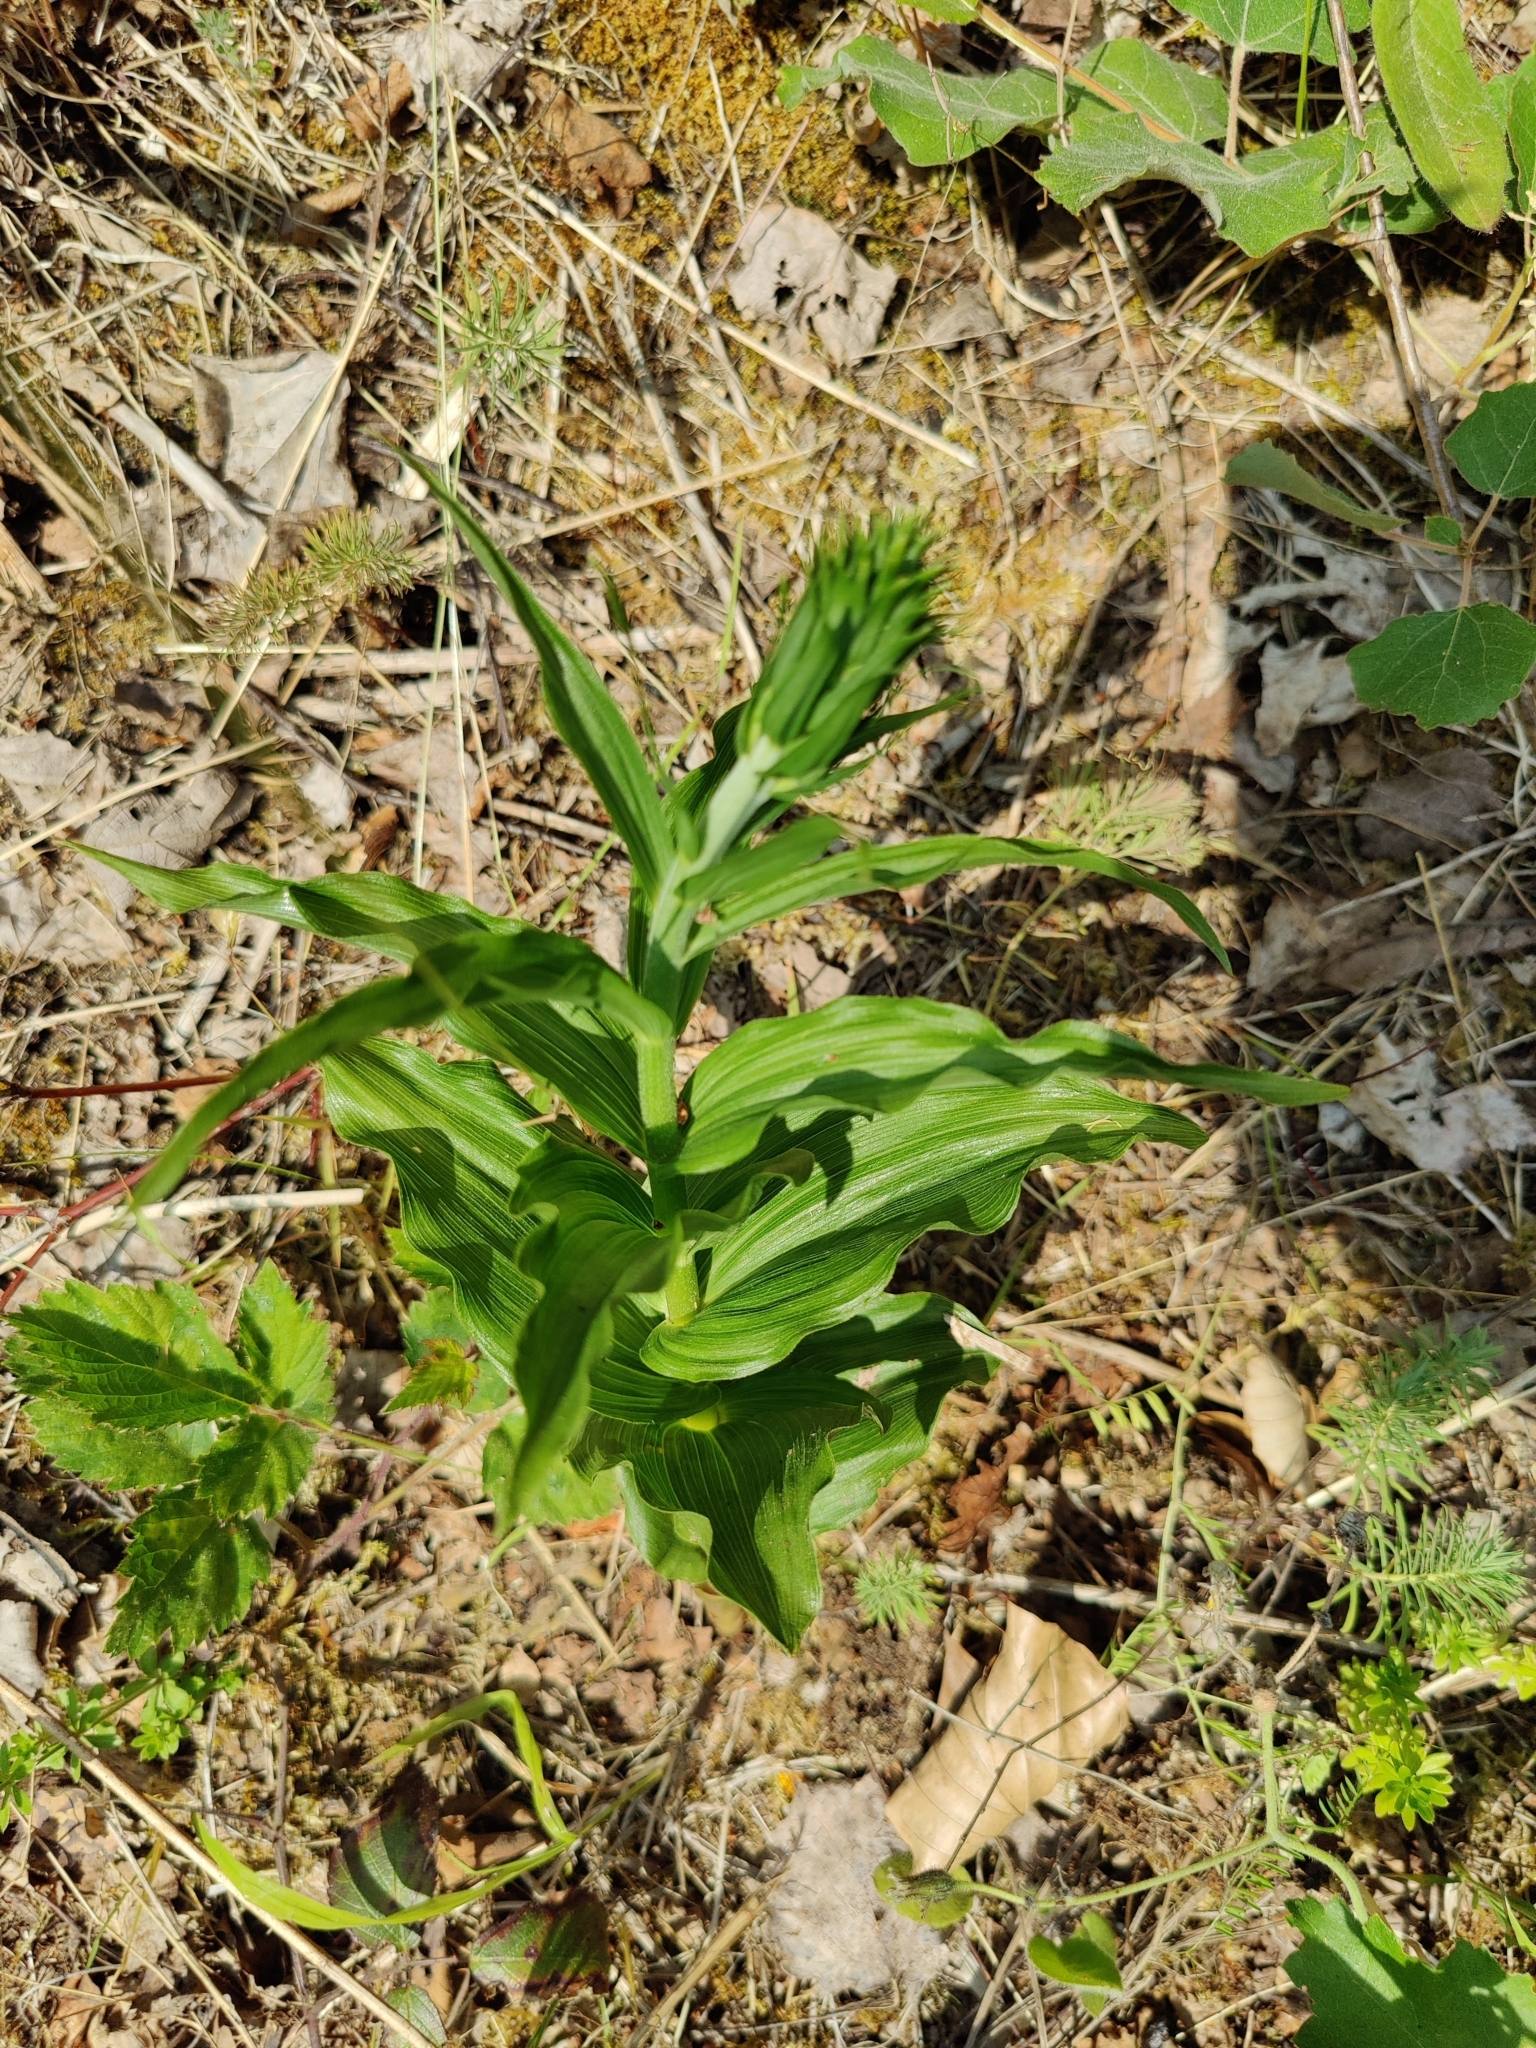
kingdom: Plantae
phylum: Tracheophyta
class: Liliopsida
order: Asparagales
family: Orchidaceae
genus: Epipactis
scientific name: Epipactis helleborine
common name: Broad-leaved helleborine
